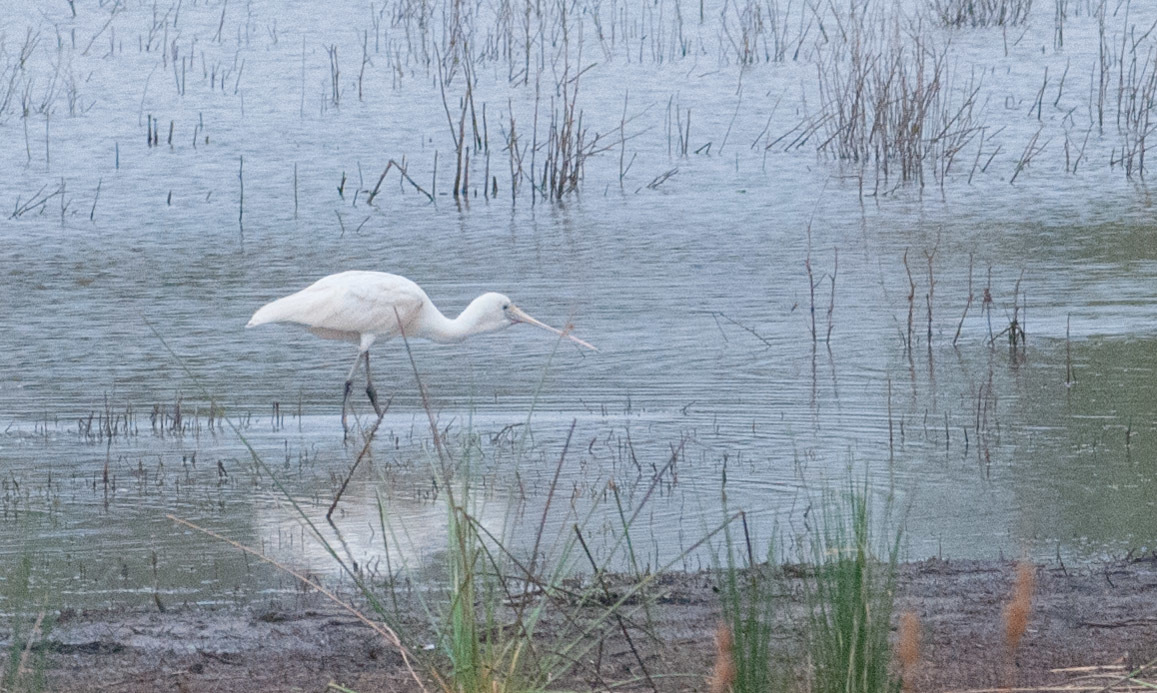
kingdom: Animalia
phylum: Chordata
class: Aves
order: Pelecaniformes
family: Threskiornithidae
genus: Platalea
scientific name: Platalea flavipes
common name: Yellow-billed spoonbill
